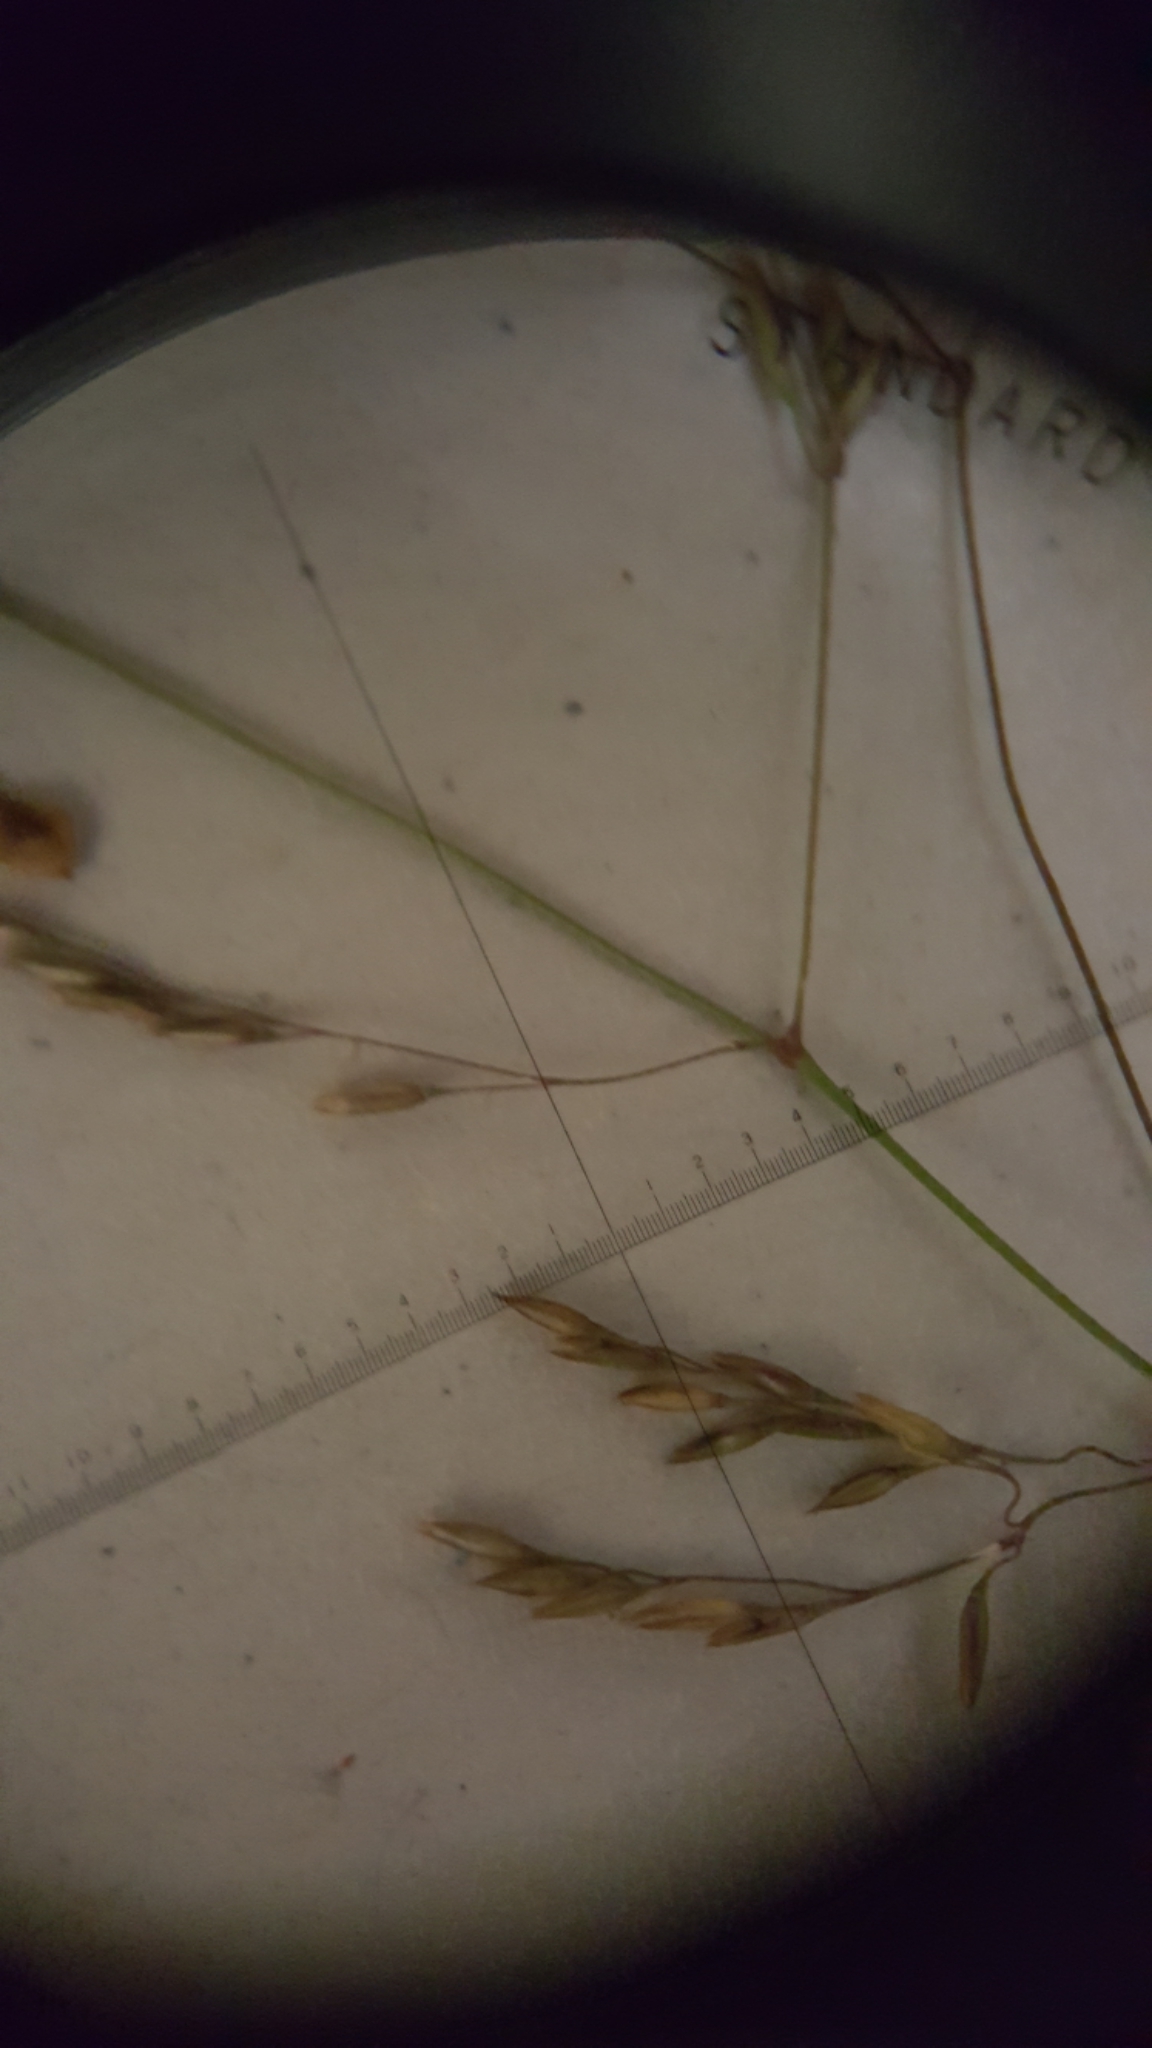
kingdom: Plantae
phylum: Tracheophyta
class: Liliopsida
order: Poales
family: Poaceae
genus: Agrostis
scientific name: Agrostis gigantea
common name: Black bent
